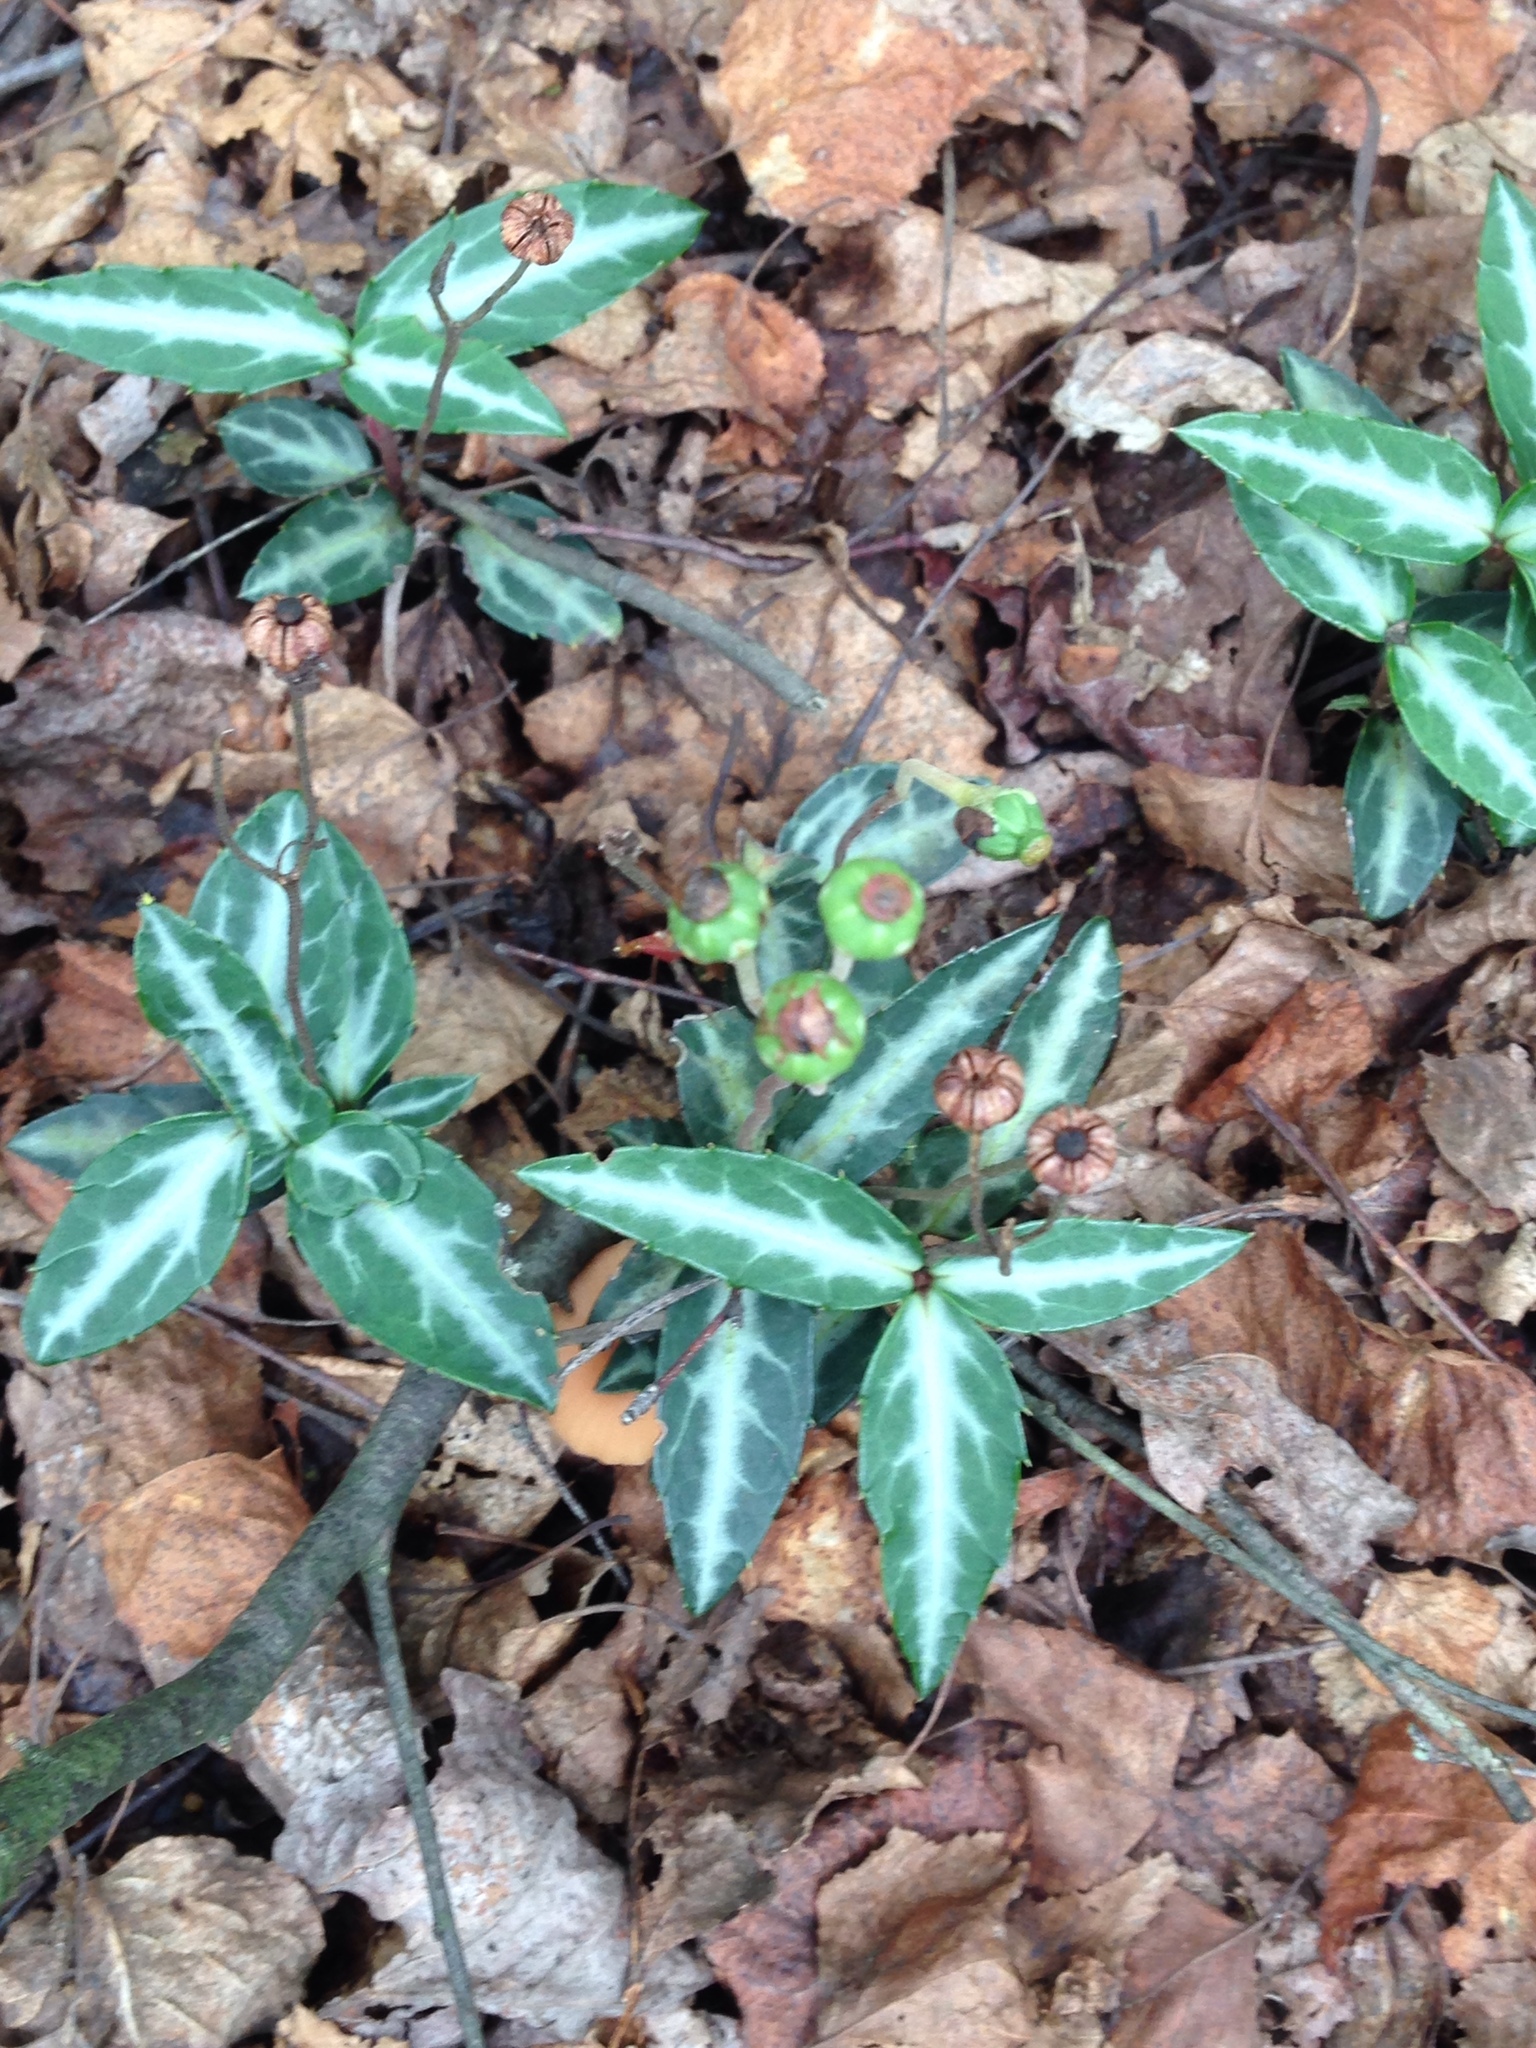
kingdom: Plantae
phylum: Tracheophyta
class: Magnoliopsida
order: Ericales
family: Ericaceae
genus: Chimaphila
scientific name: Chimaphila maculata
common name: Spotted pipsissewa
